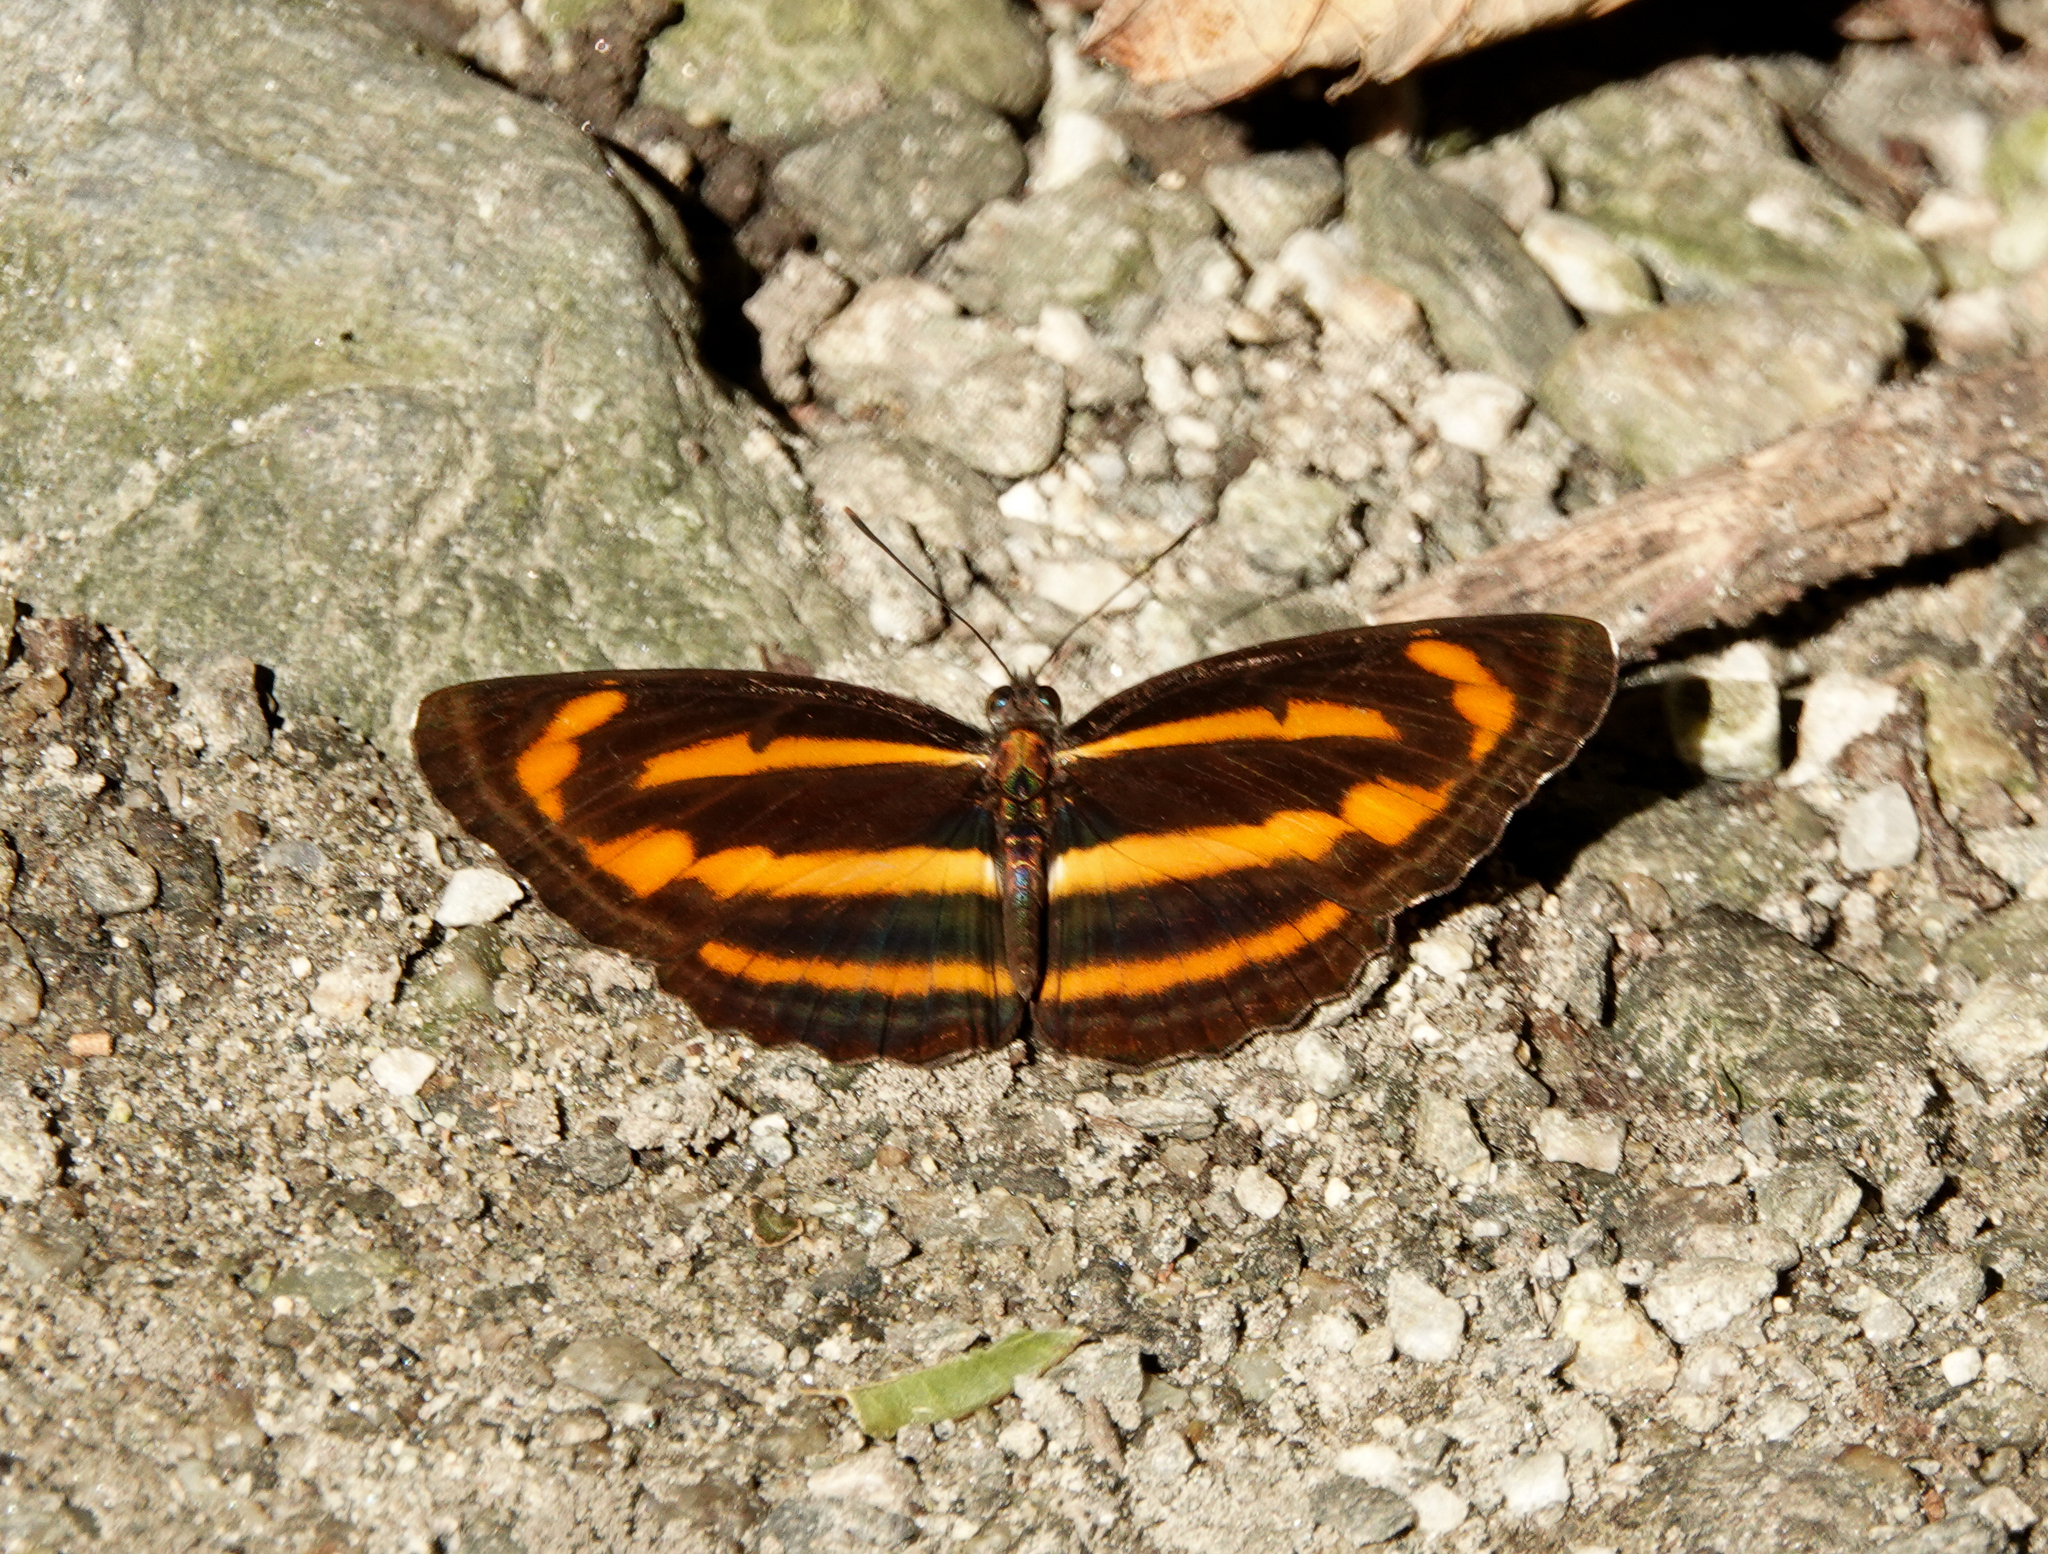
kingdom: Animalia
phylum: Arthropoda
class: Insecta
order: Lepidoptera
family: Nymphalidae
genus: Neptis
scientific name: Neptis miah
